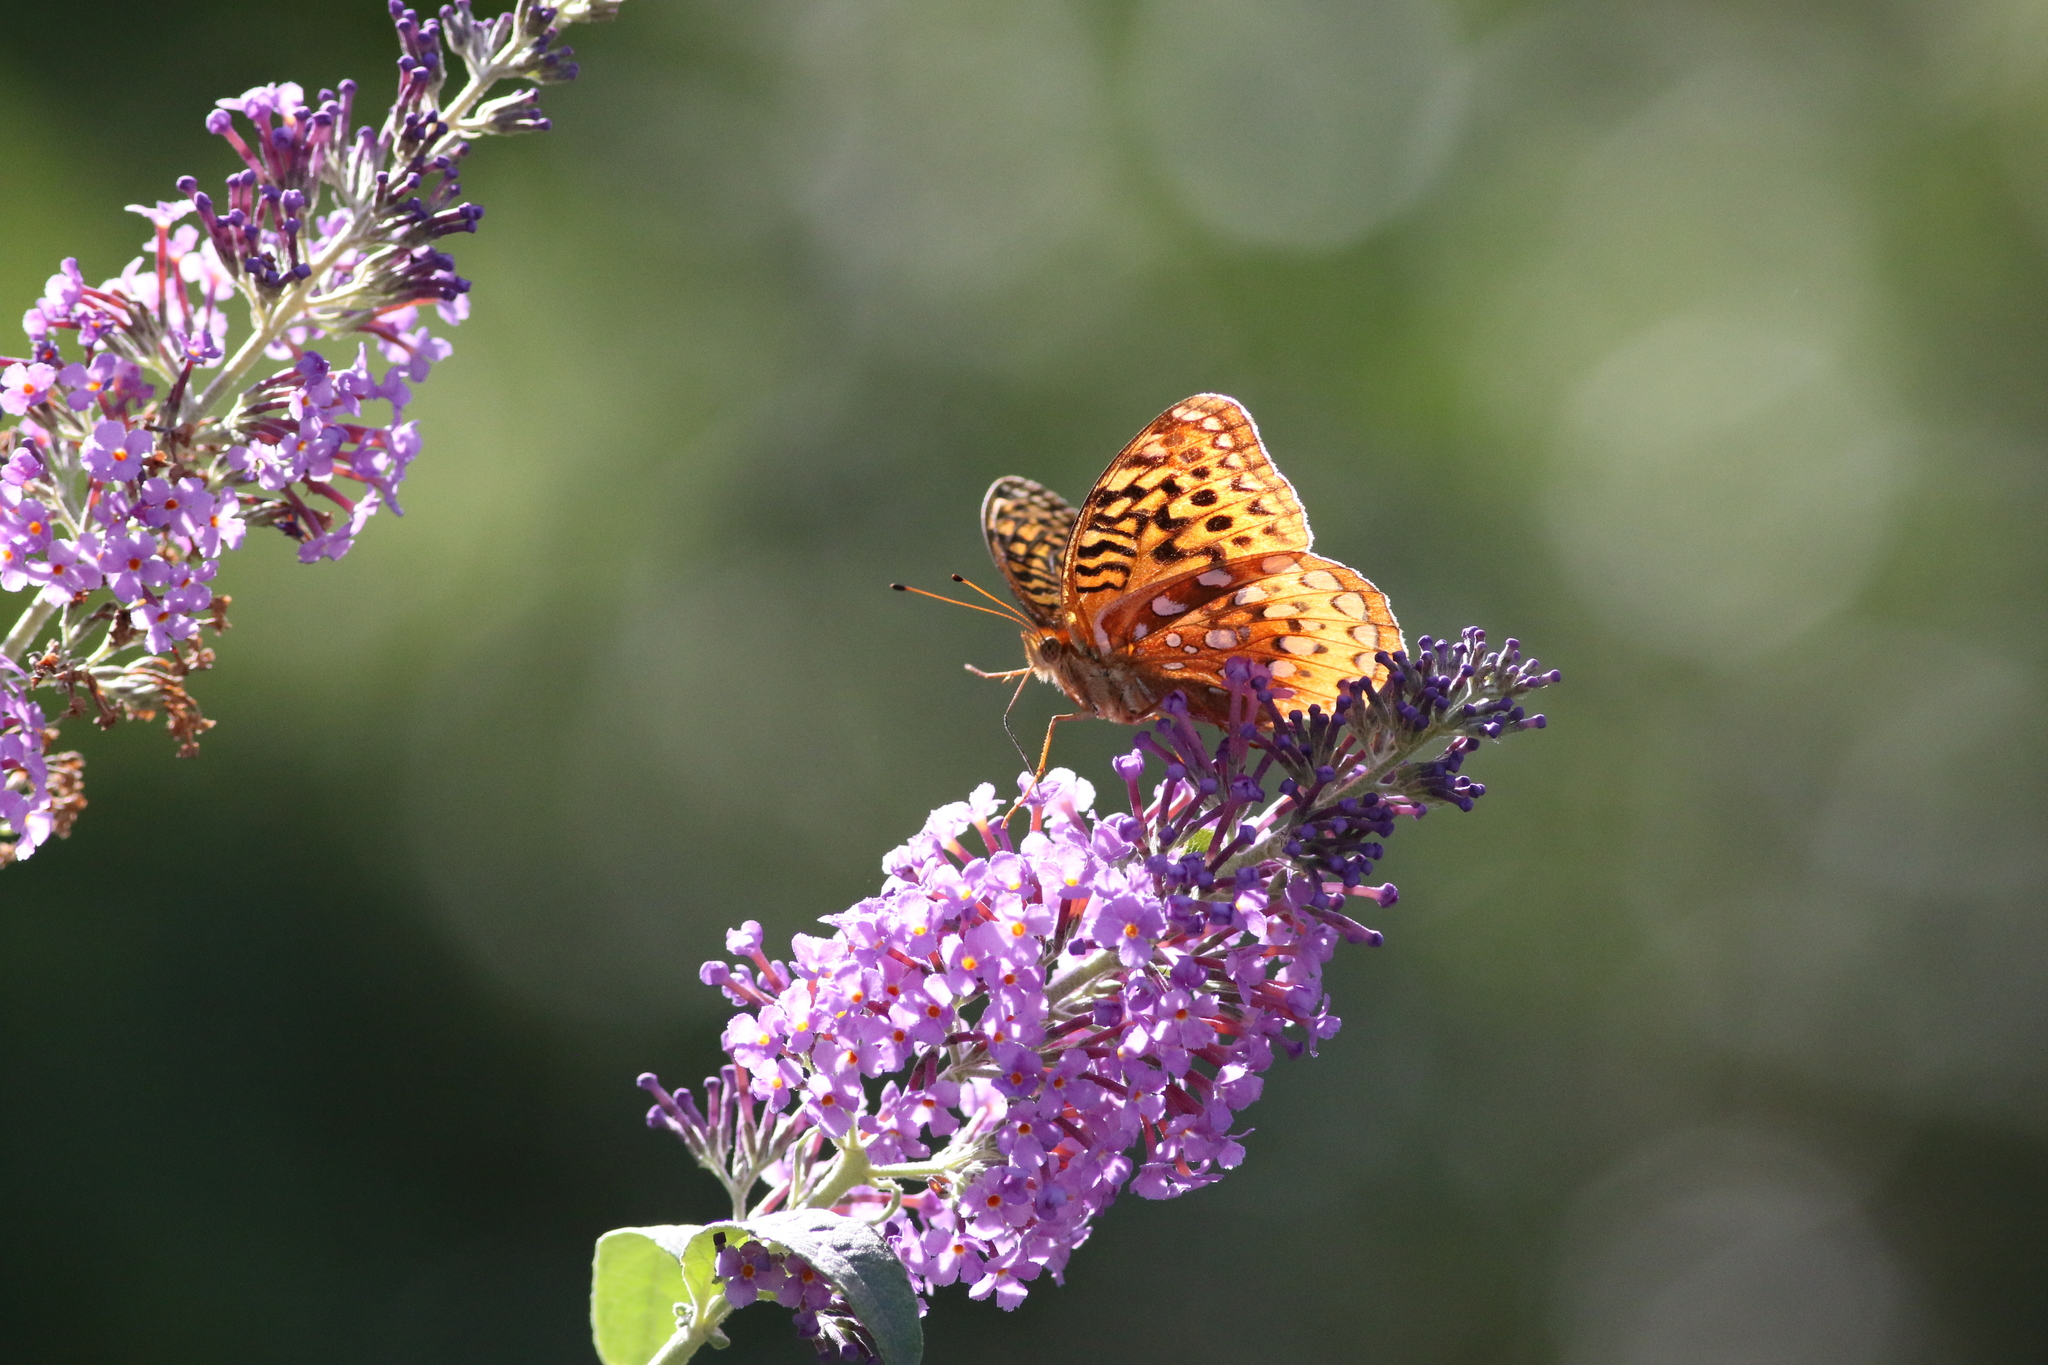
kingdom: Animalia
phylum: Arthropoda
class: Insecta
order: Lepidoptera
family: Nymphalidae
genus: Speyeria
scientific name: Speyeria cybele
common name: Great spangled fritillary
